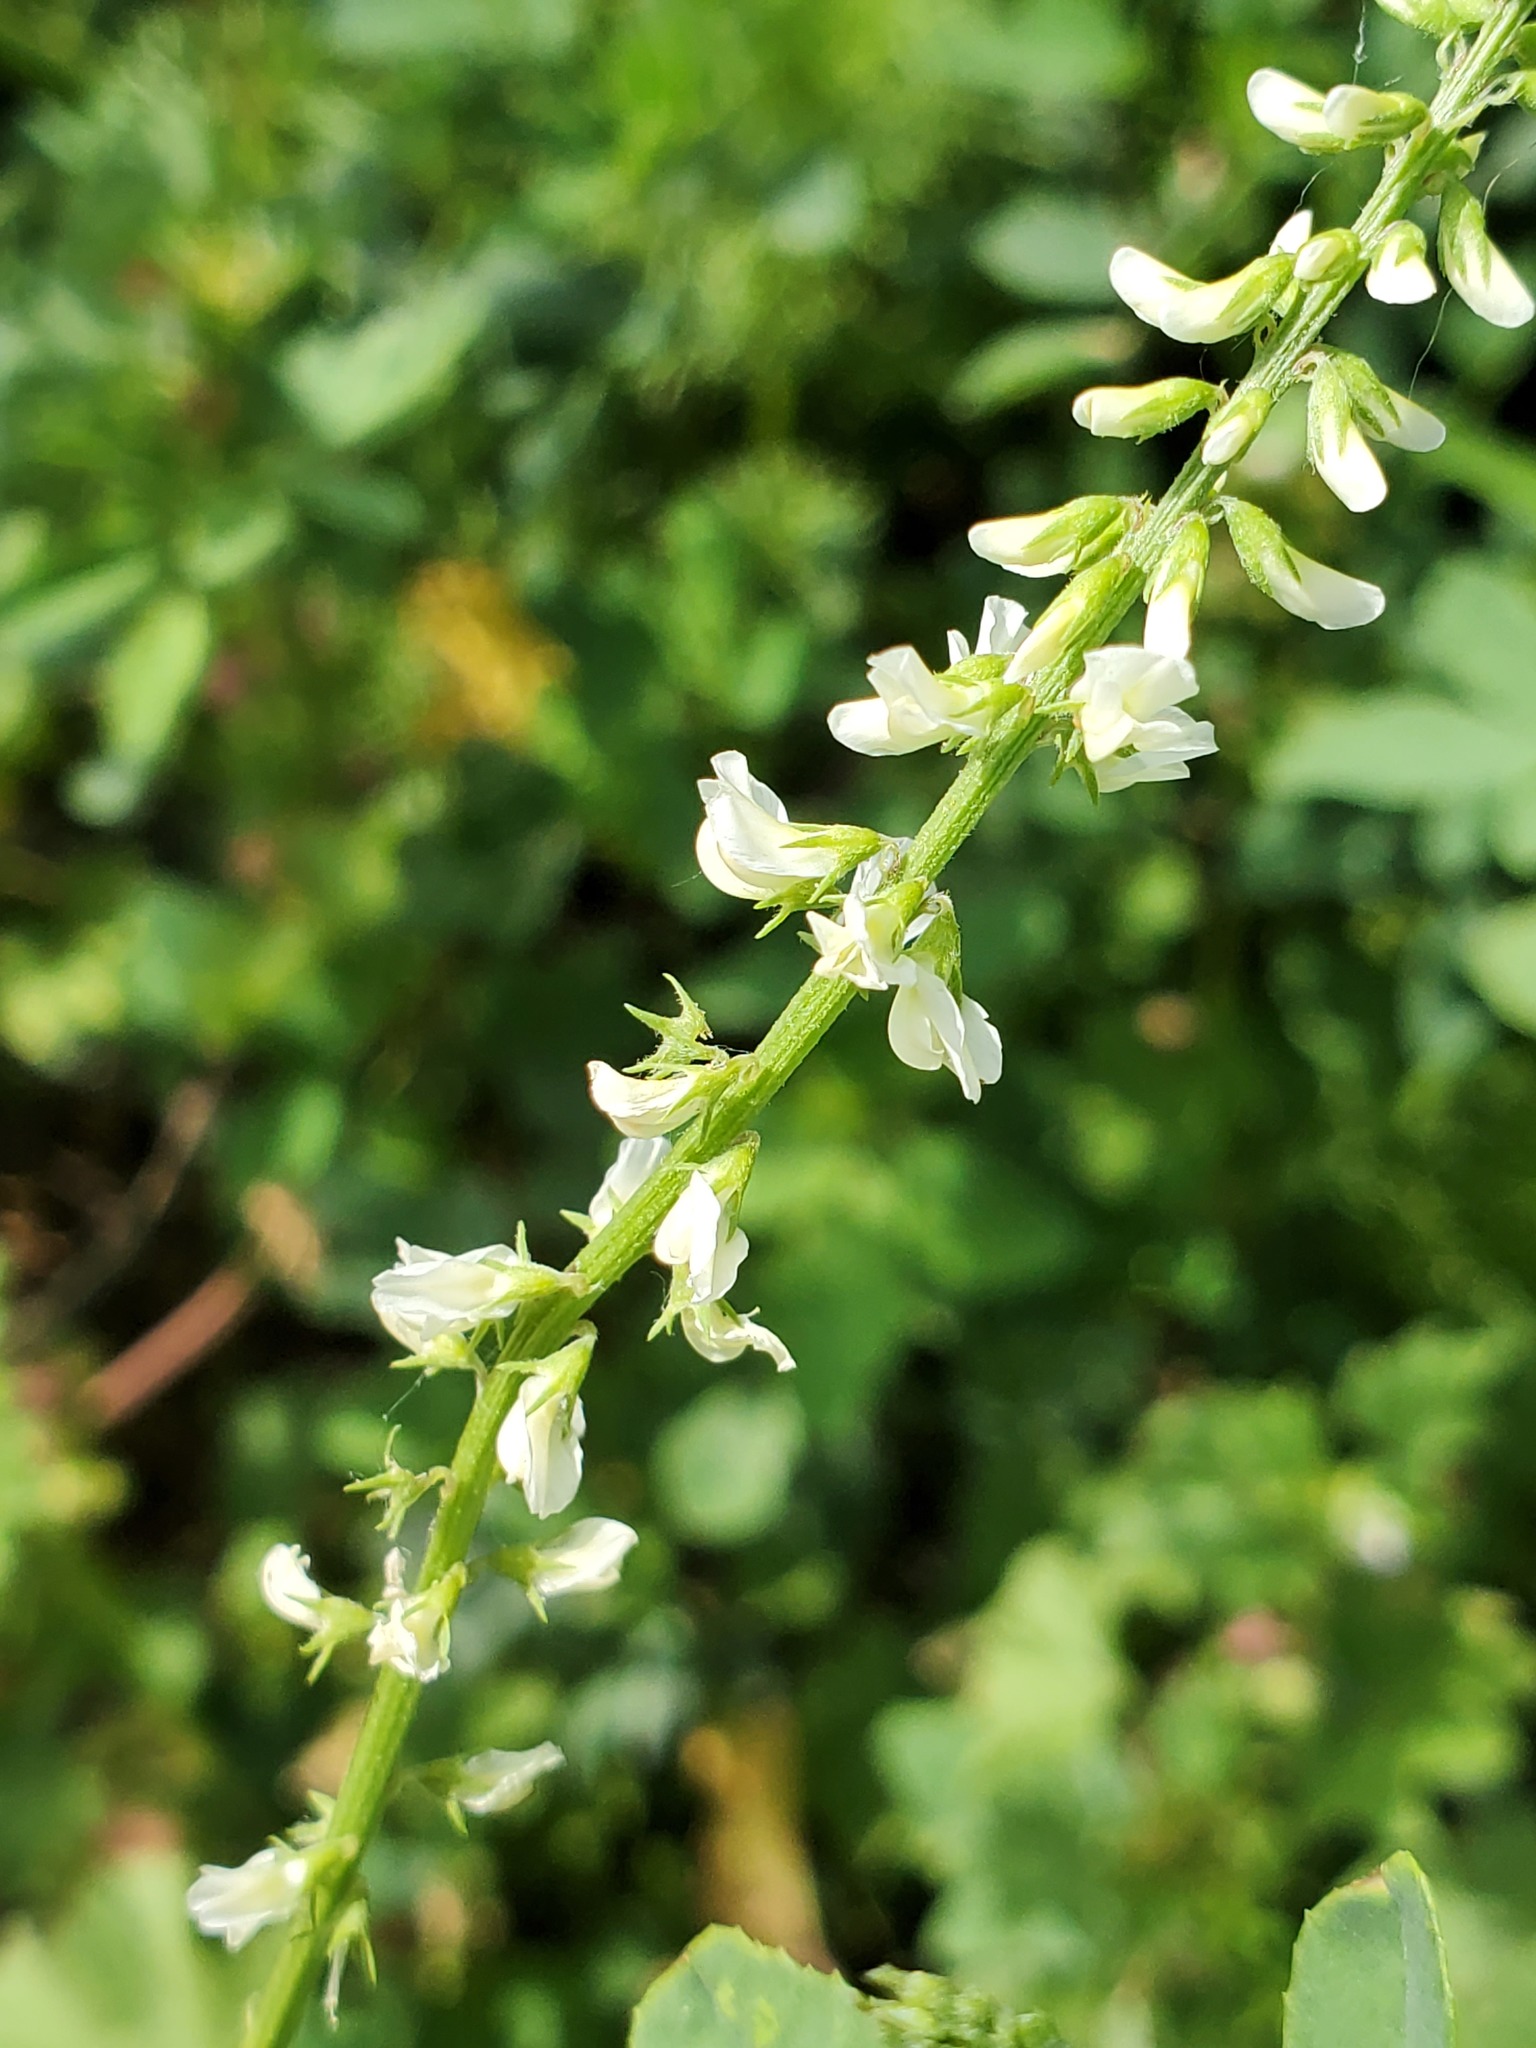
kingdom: Plantae
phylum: Tracheophyta
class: Magnoliopsida
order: Fabales
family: Fabaceae
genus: Melilotus
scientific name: Melilotus albus
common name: White melilot
